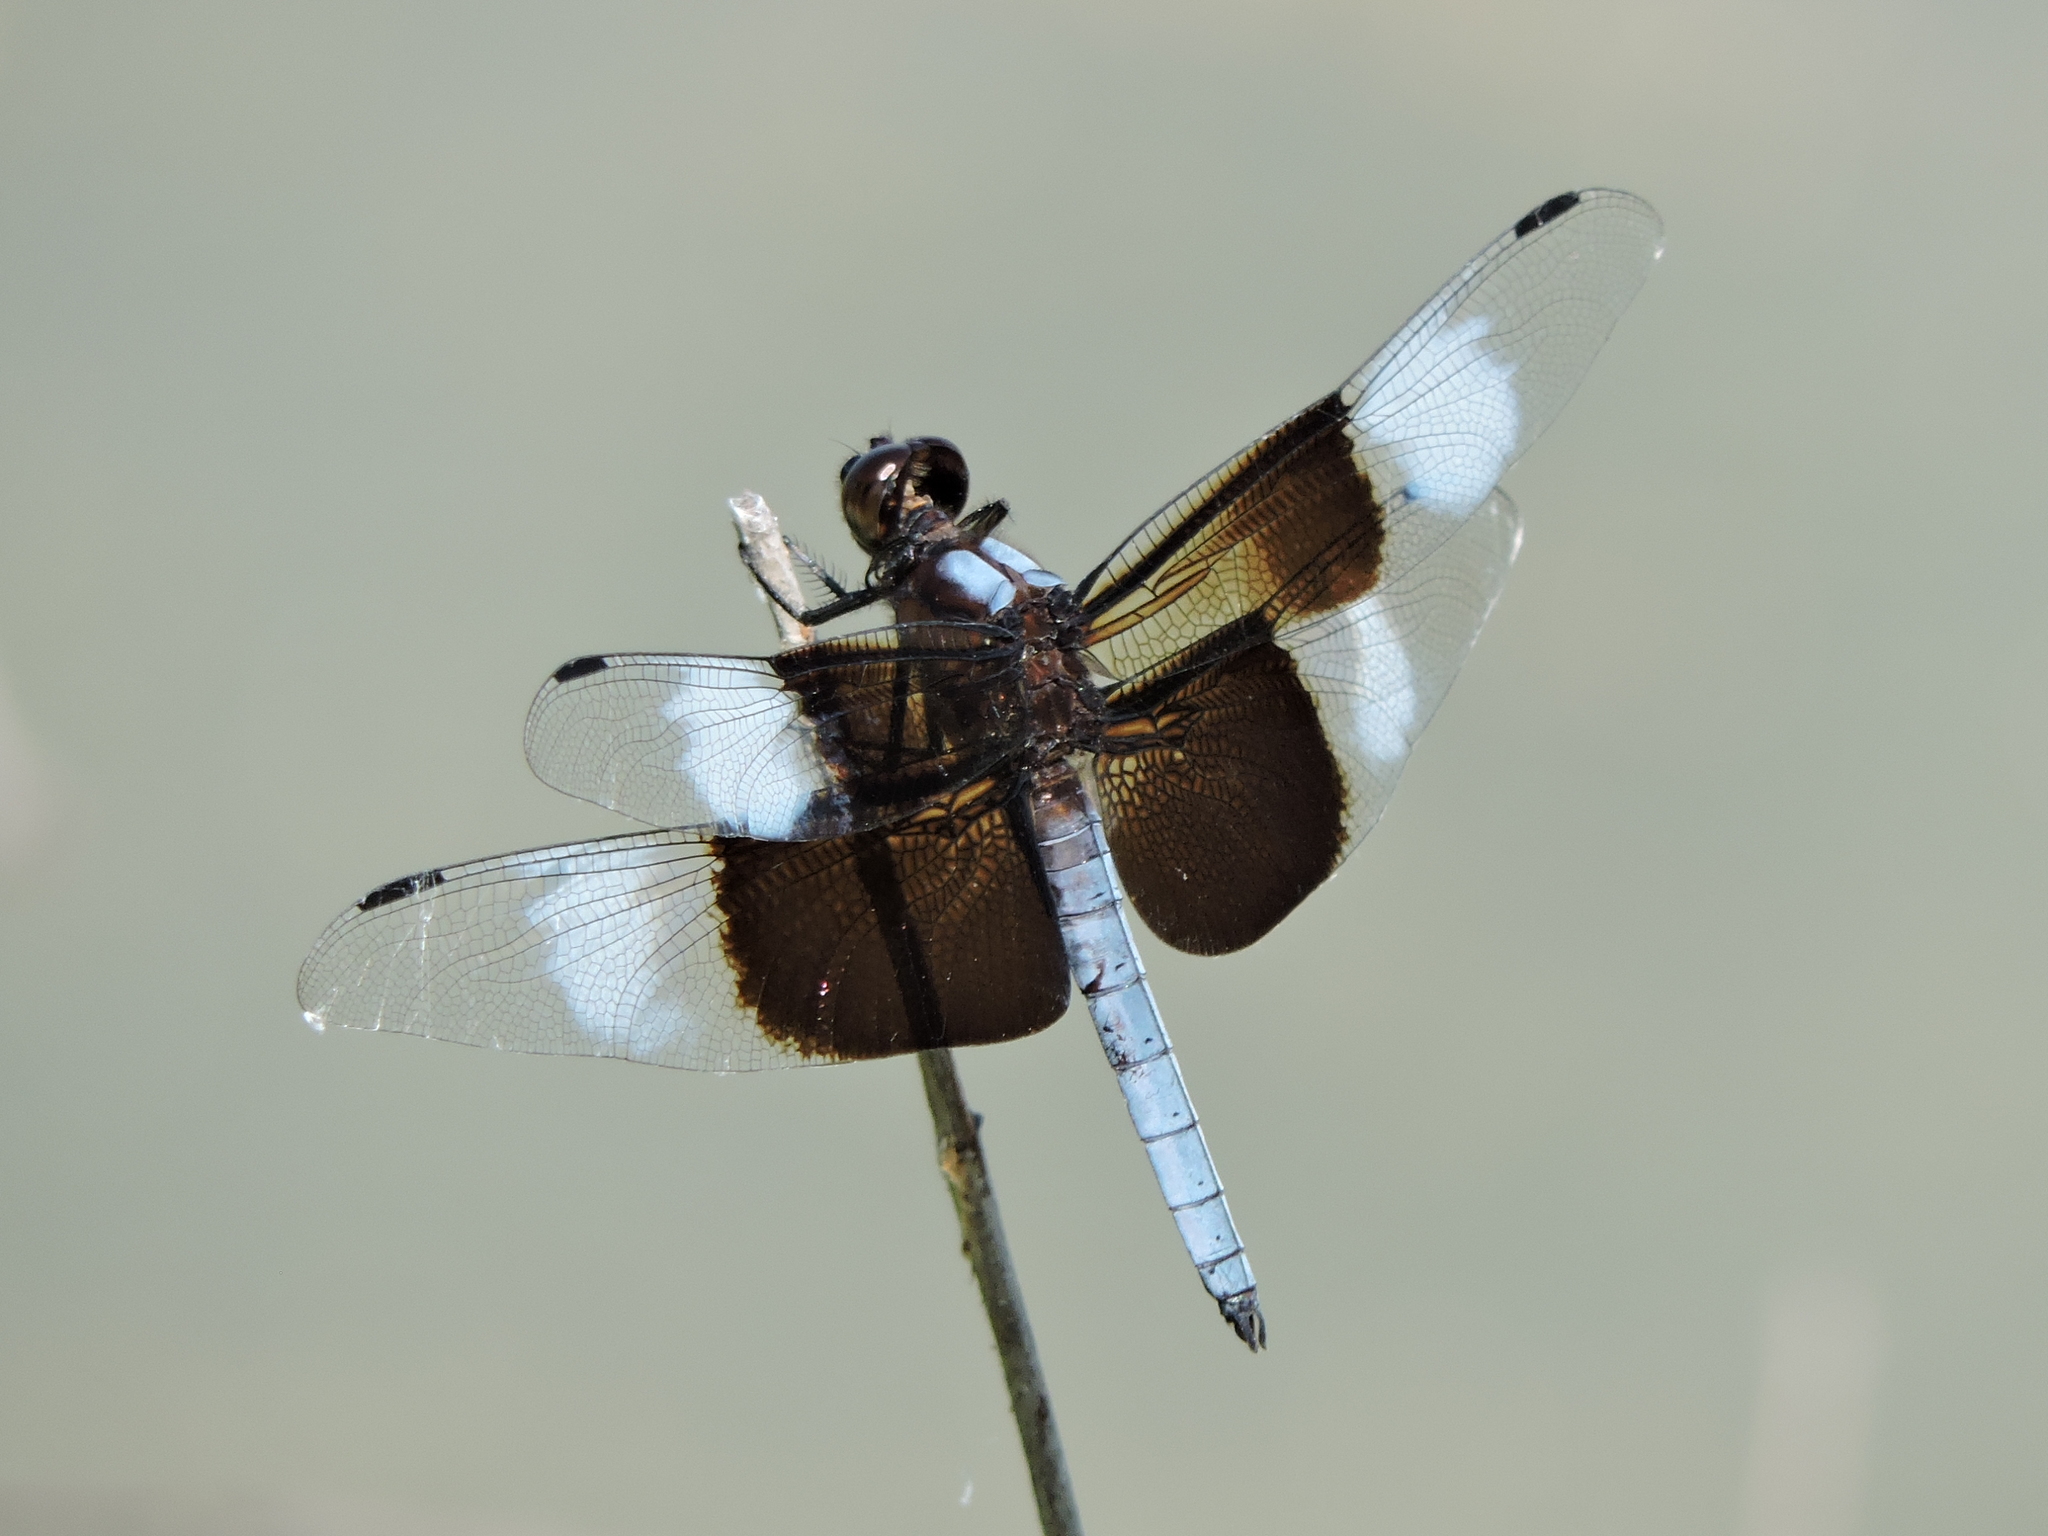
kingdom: Animalia
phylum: Arthropoda
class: Insecta
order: Odonata
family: Libellulidae
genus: Libellula
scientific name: Libellula luctuosa
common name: Widow skimmer
